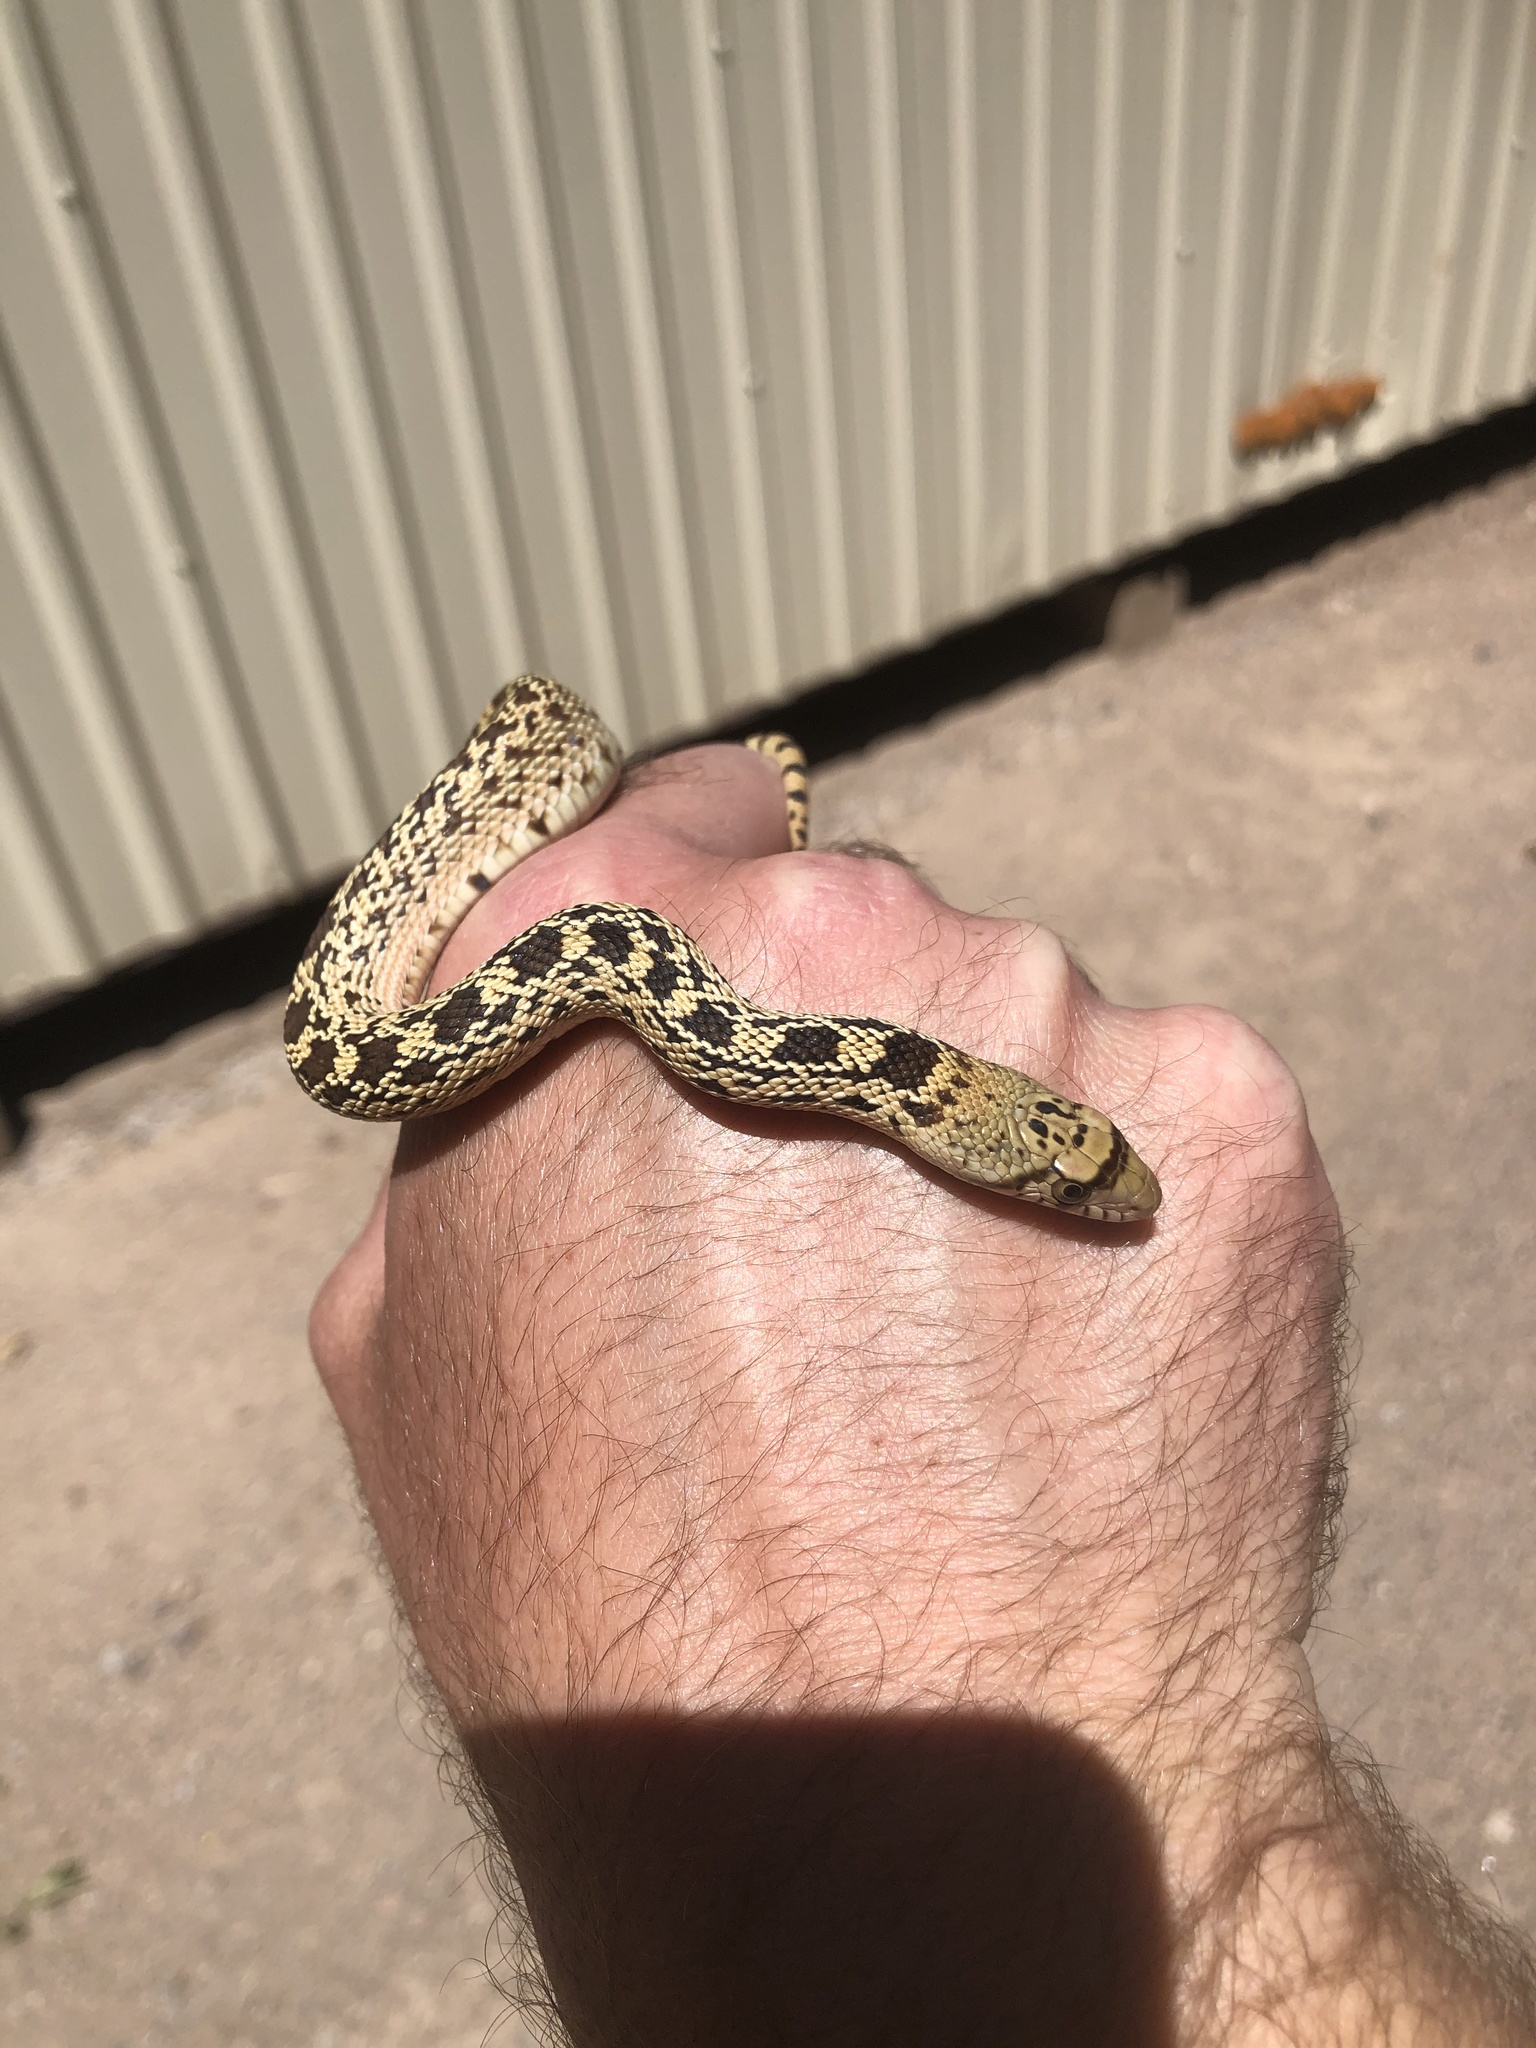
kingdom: Animalia
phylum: Chordata
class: Squamata
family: Colubridae
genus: Pituophis
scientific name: Pituophis catenifer
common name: Gopher snake
